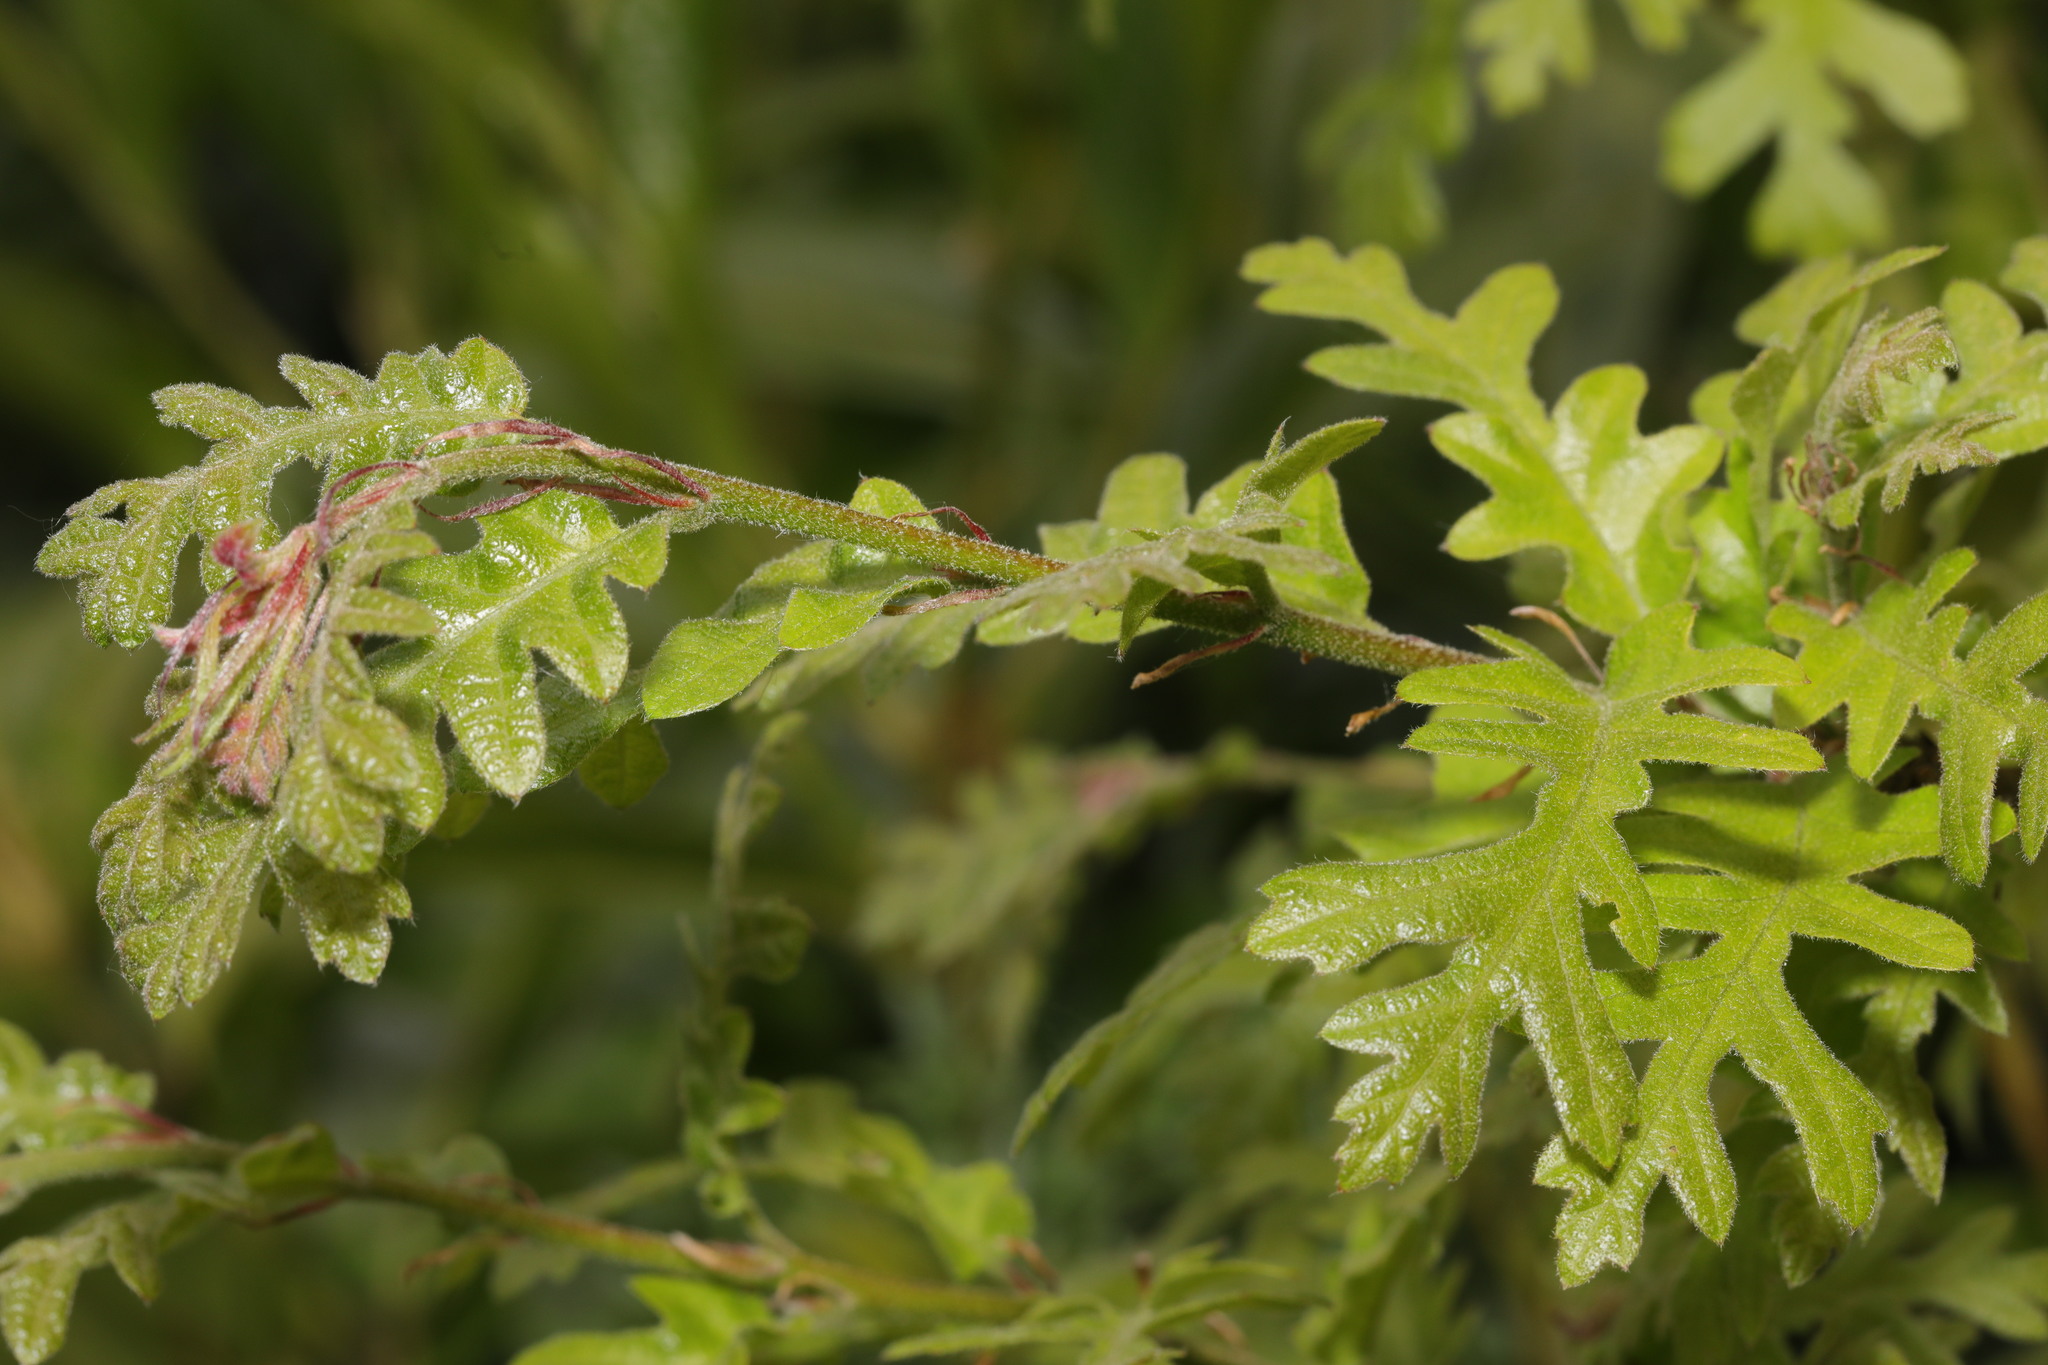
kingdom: Plantae
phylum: Tracheophyta
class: Magnoliopsida
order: Fagales
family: Fagaceae
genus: Quercus
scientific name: Quercus cerris
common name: Turkey oak
